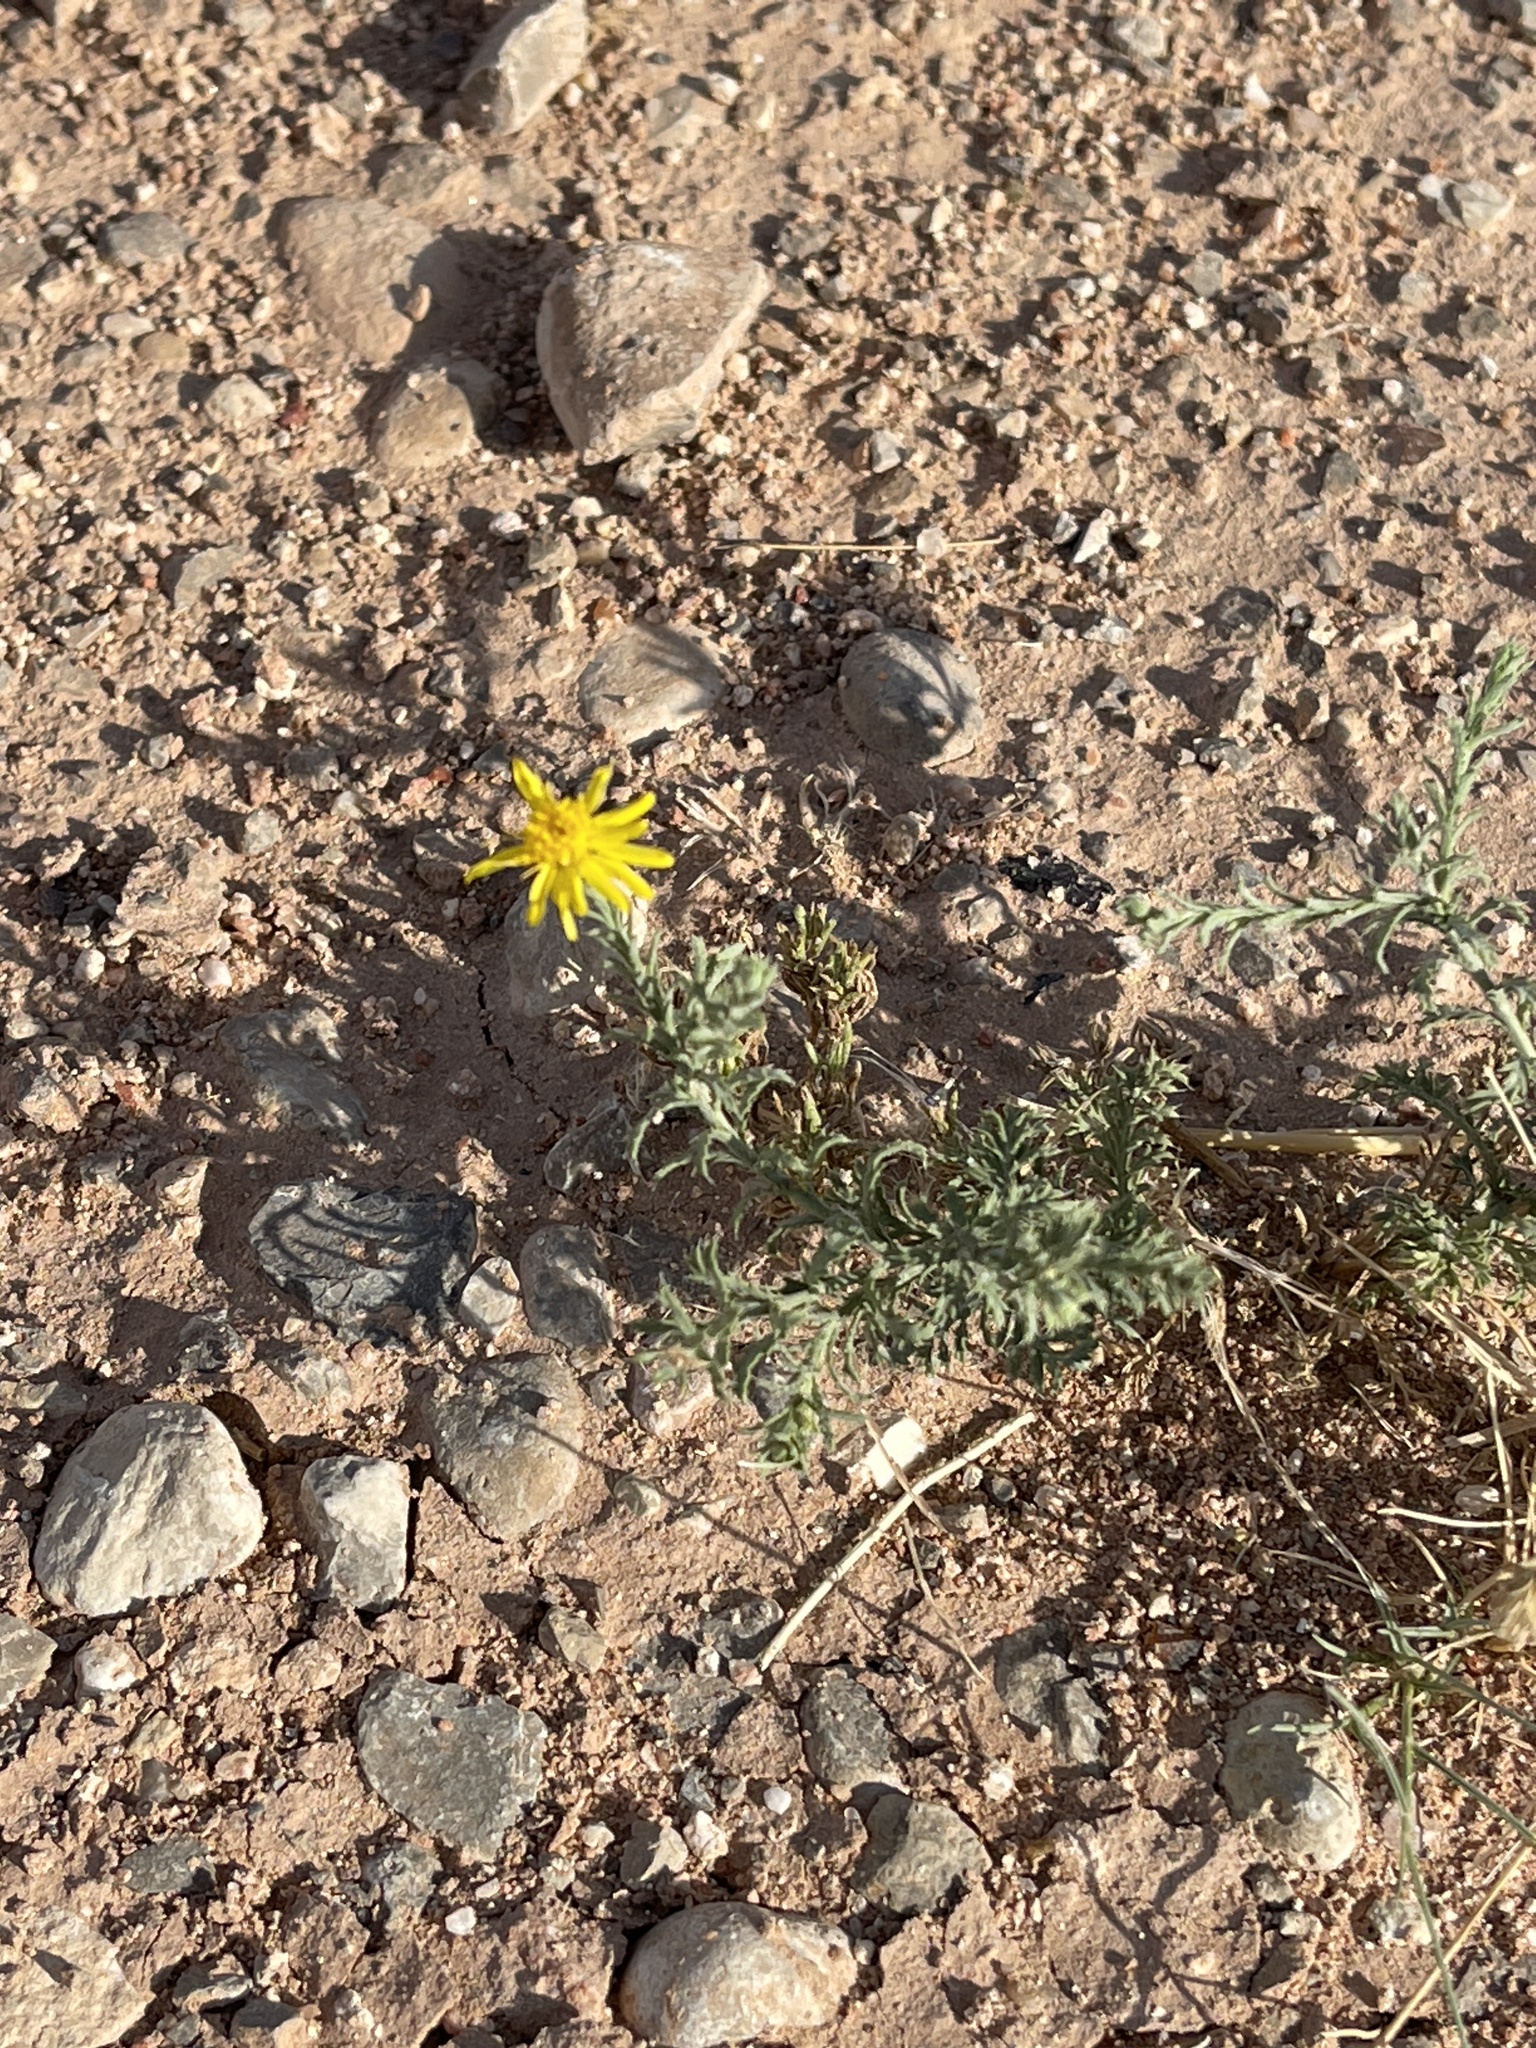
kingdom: Plantae
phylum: Tracheophyta
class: Magnoliopsida
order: Asterales
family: Asteraceae
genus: Xanthisma
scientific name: Xanthisma spinulosum
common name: Spiny goldenweed
